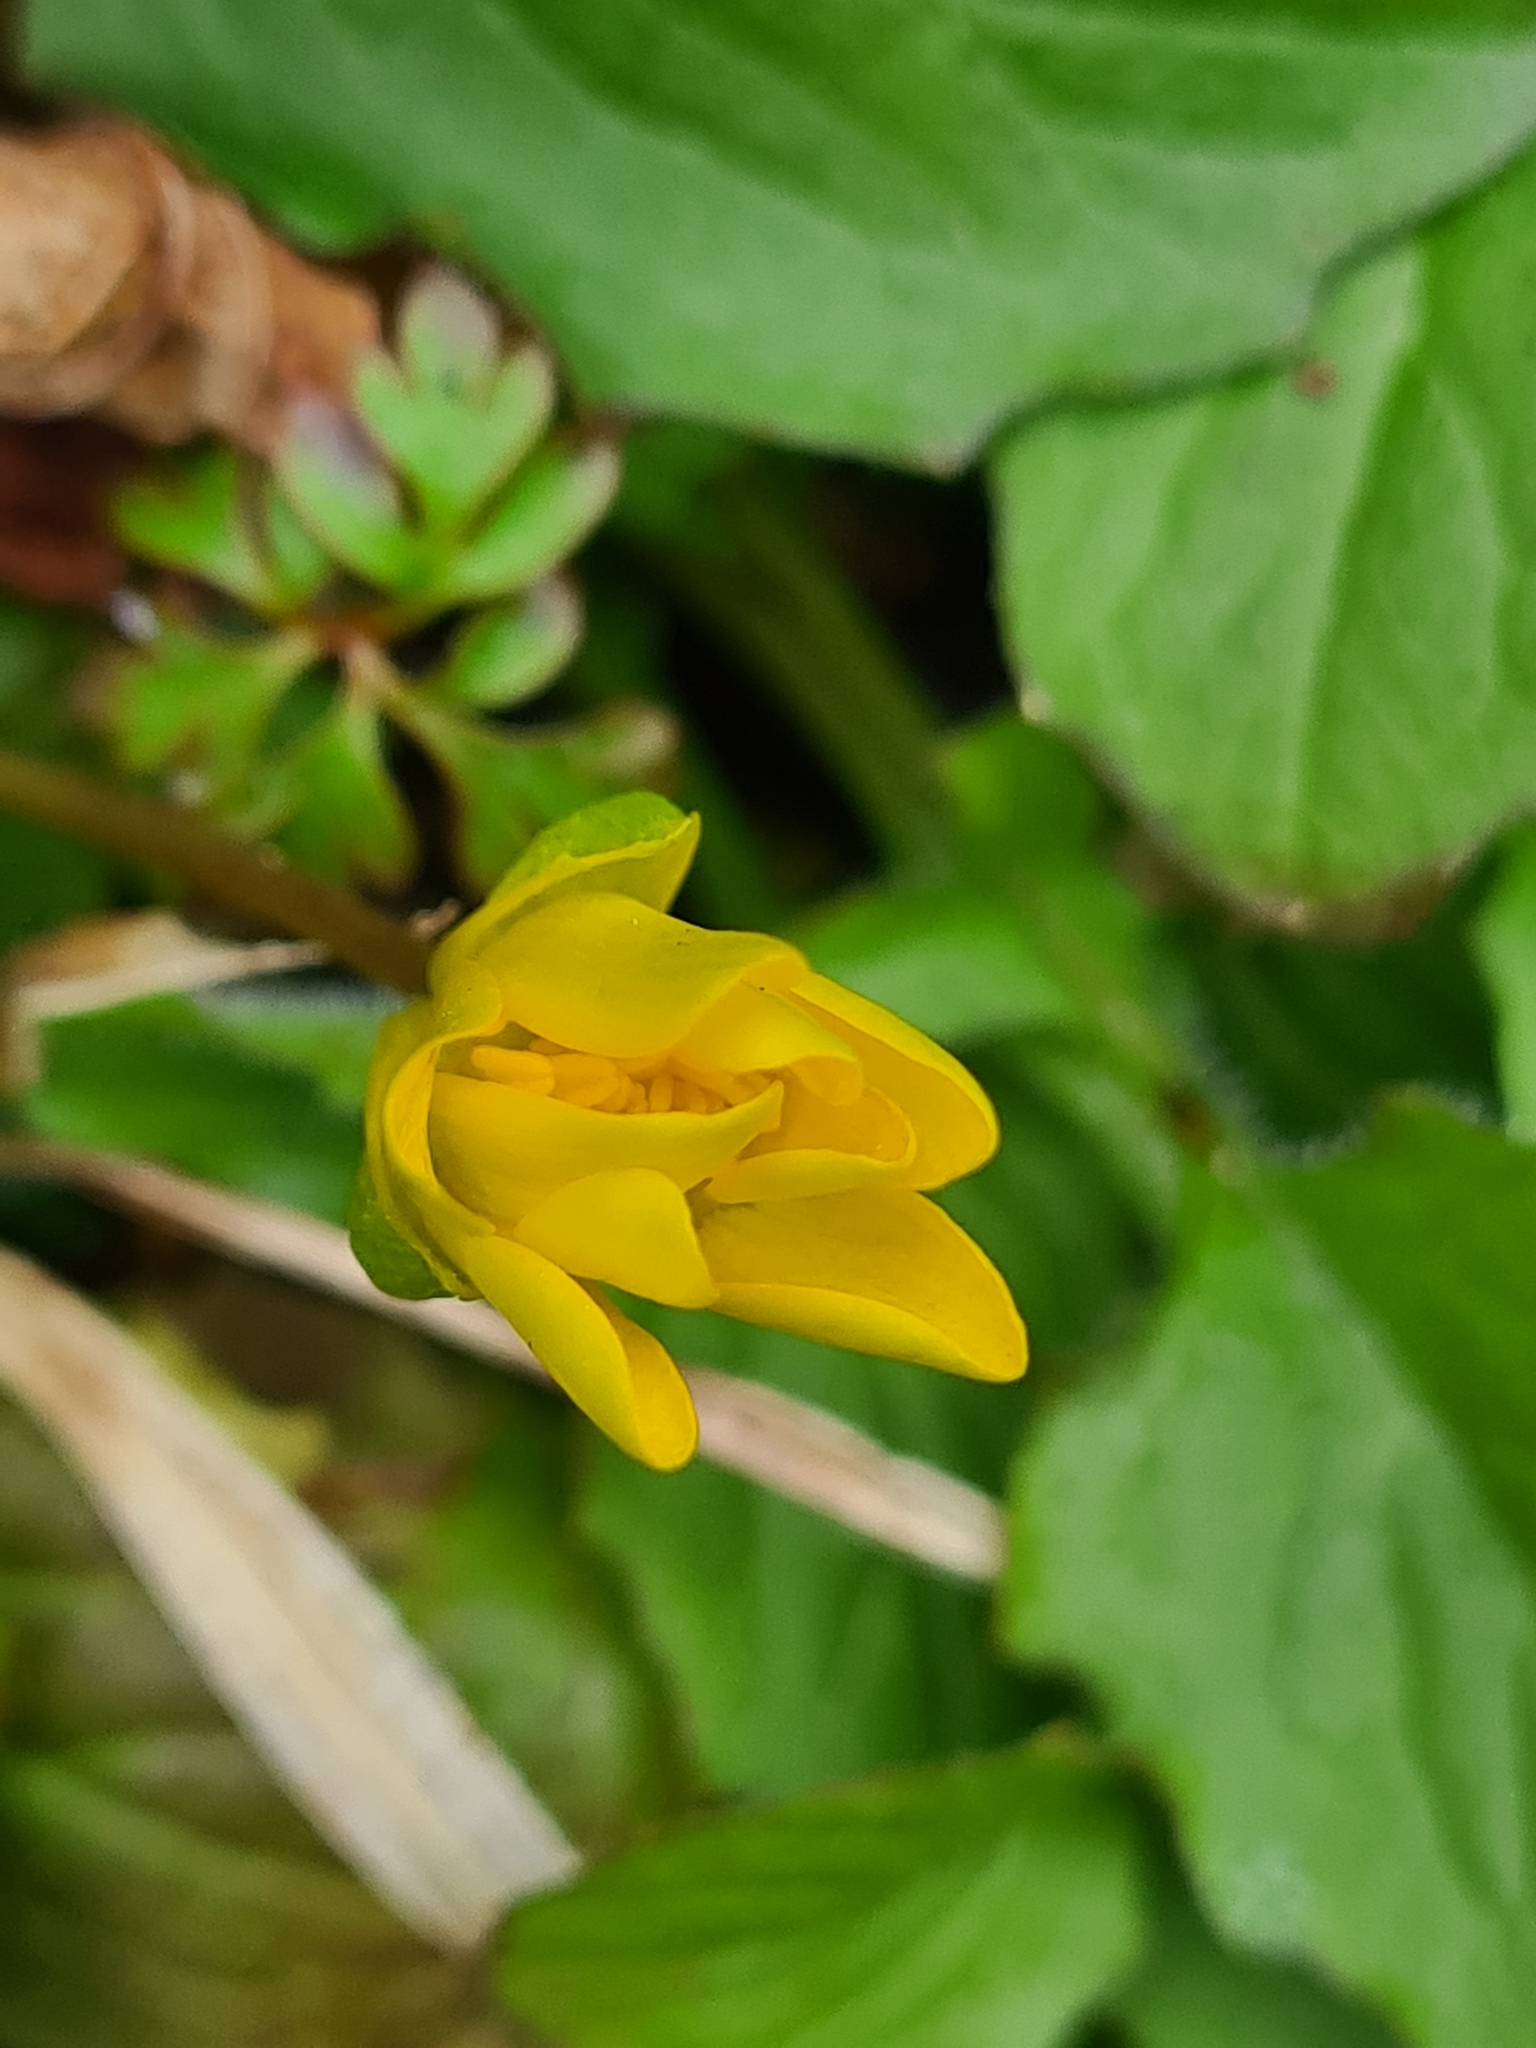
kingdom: Plantae
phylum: Tracheophyta
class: Magnoliopsida
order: Ranunculales
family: Ranunculaceae
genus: Ficaria
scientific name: Ficaria verna
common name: Lesser celandine
